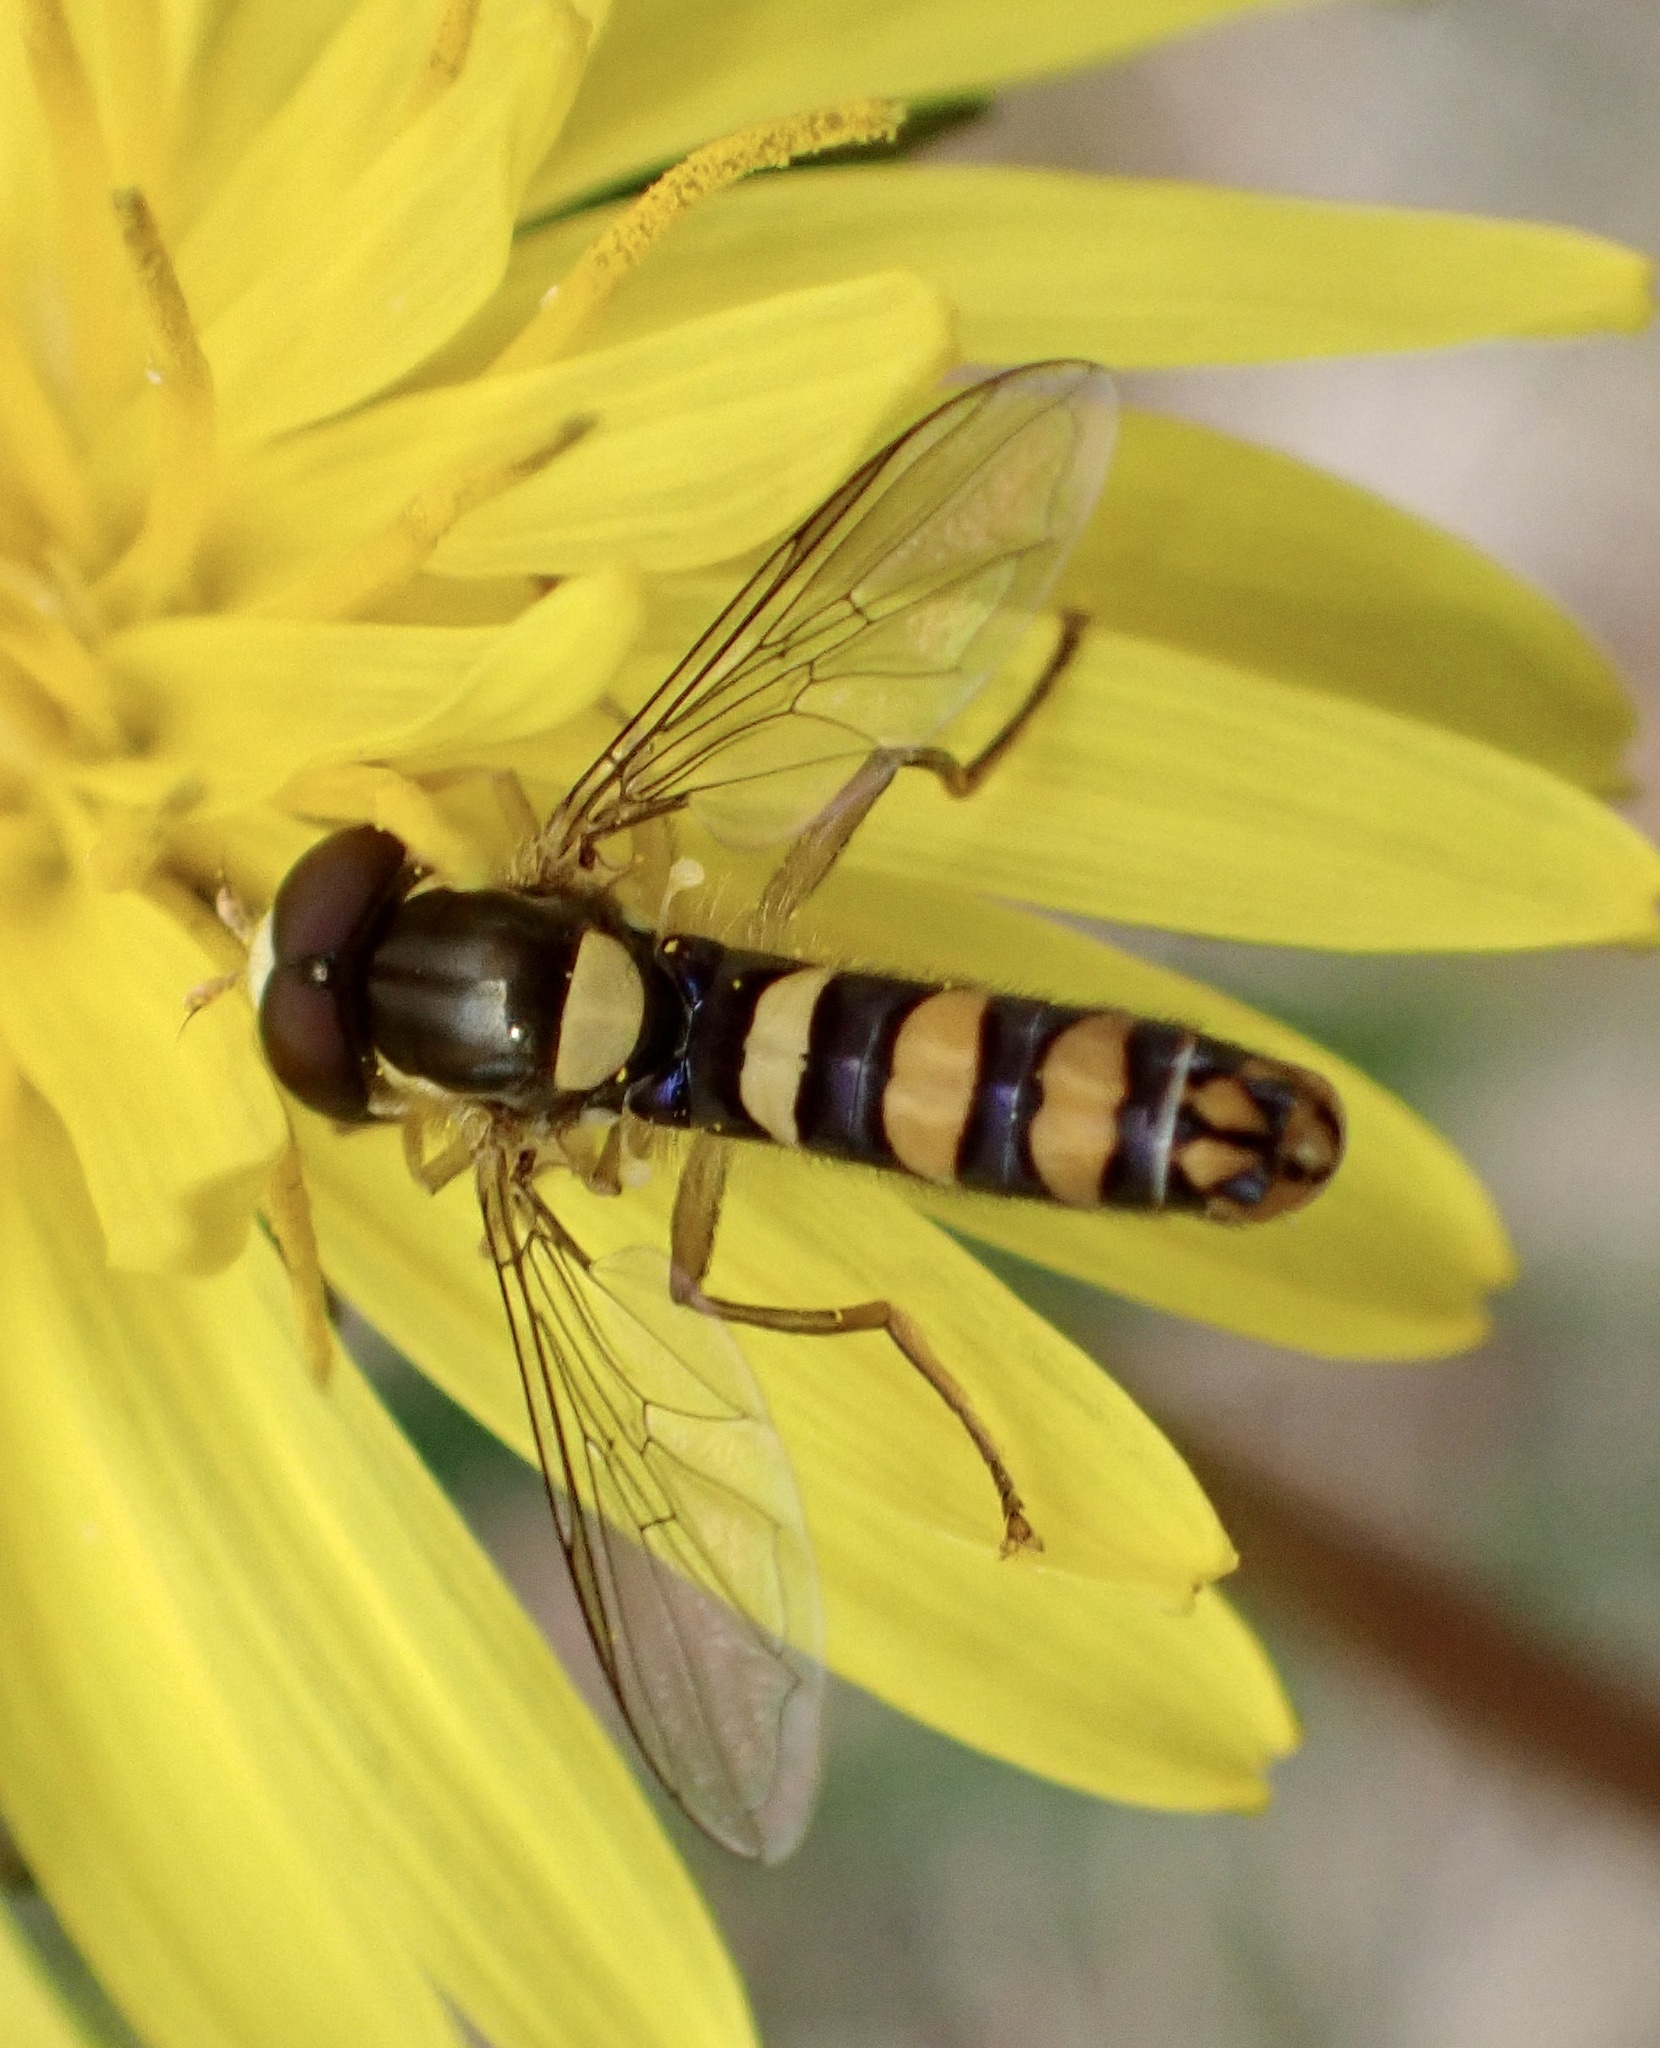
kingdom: Animalia
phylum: Arthropoda
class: Insecta
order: Diptera
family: Syrphidae
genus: Sphaerophoria
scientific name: Sphaerophoria
